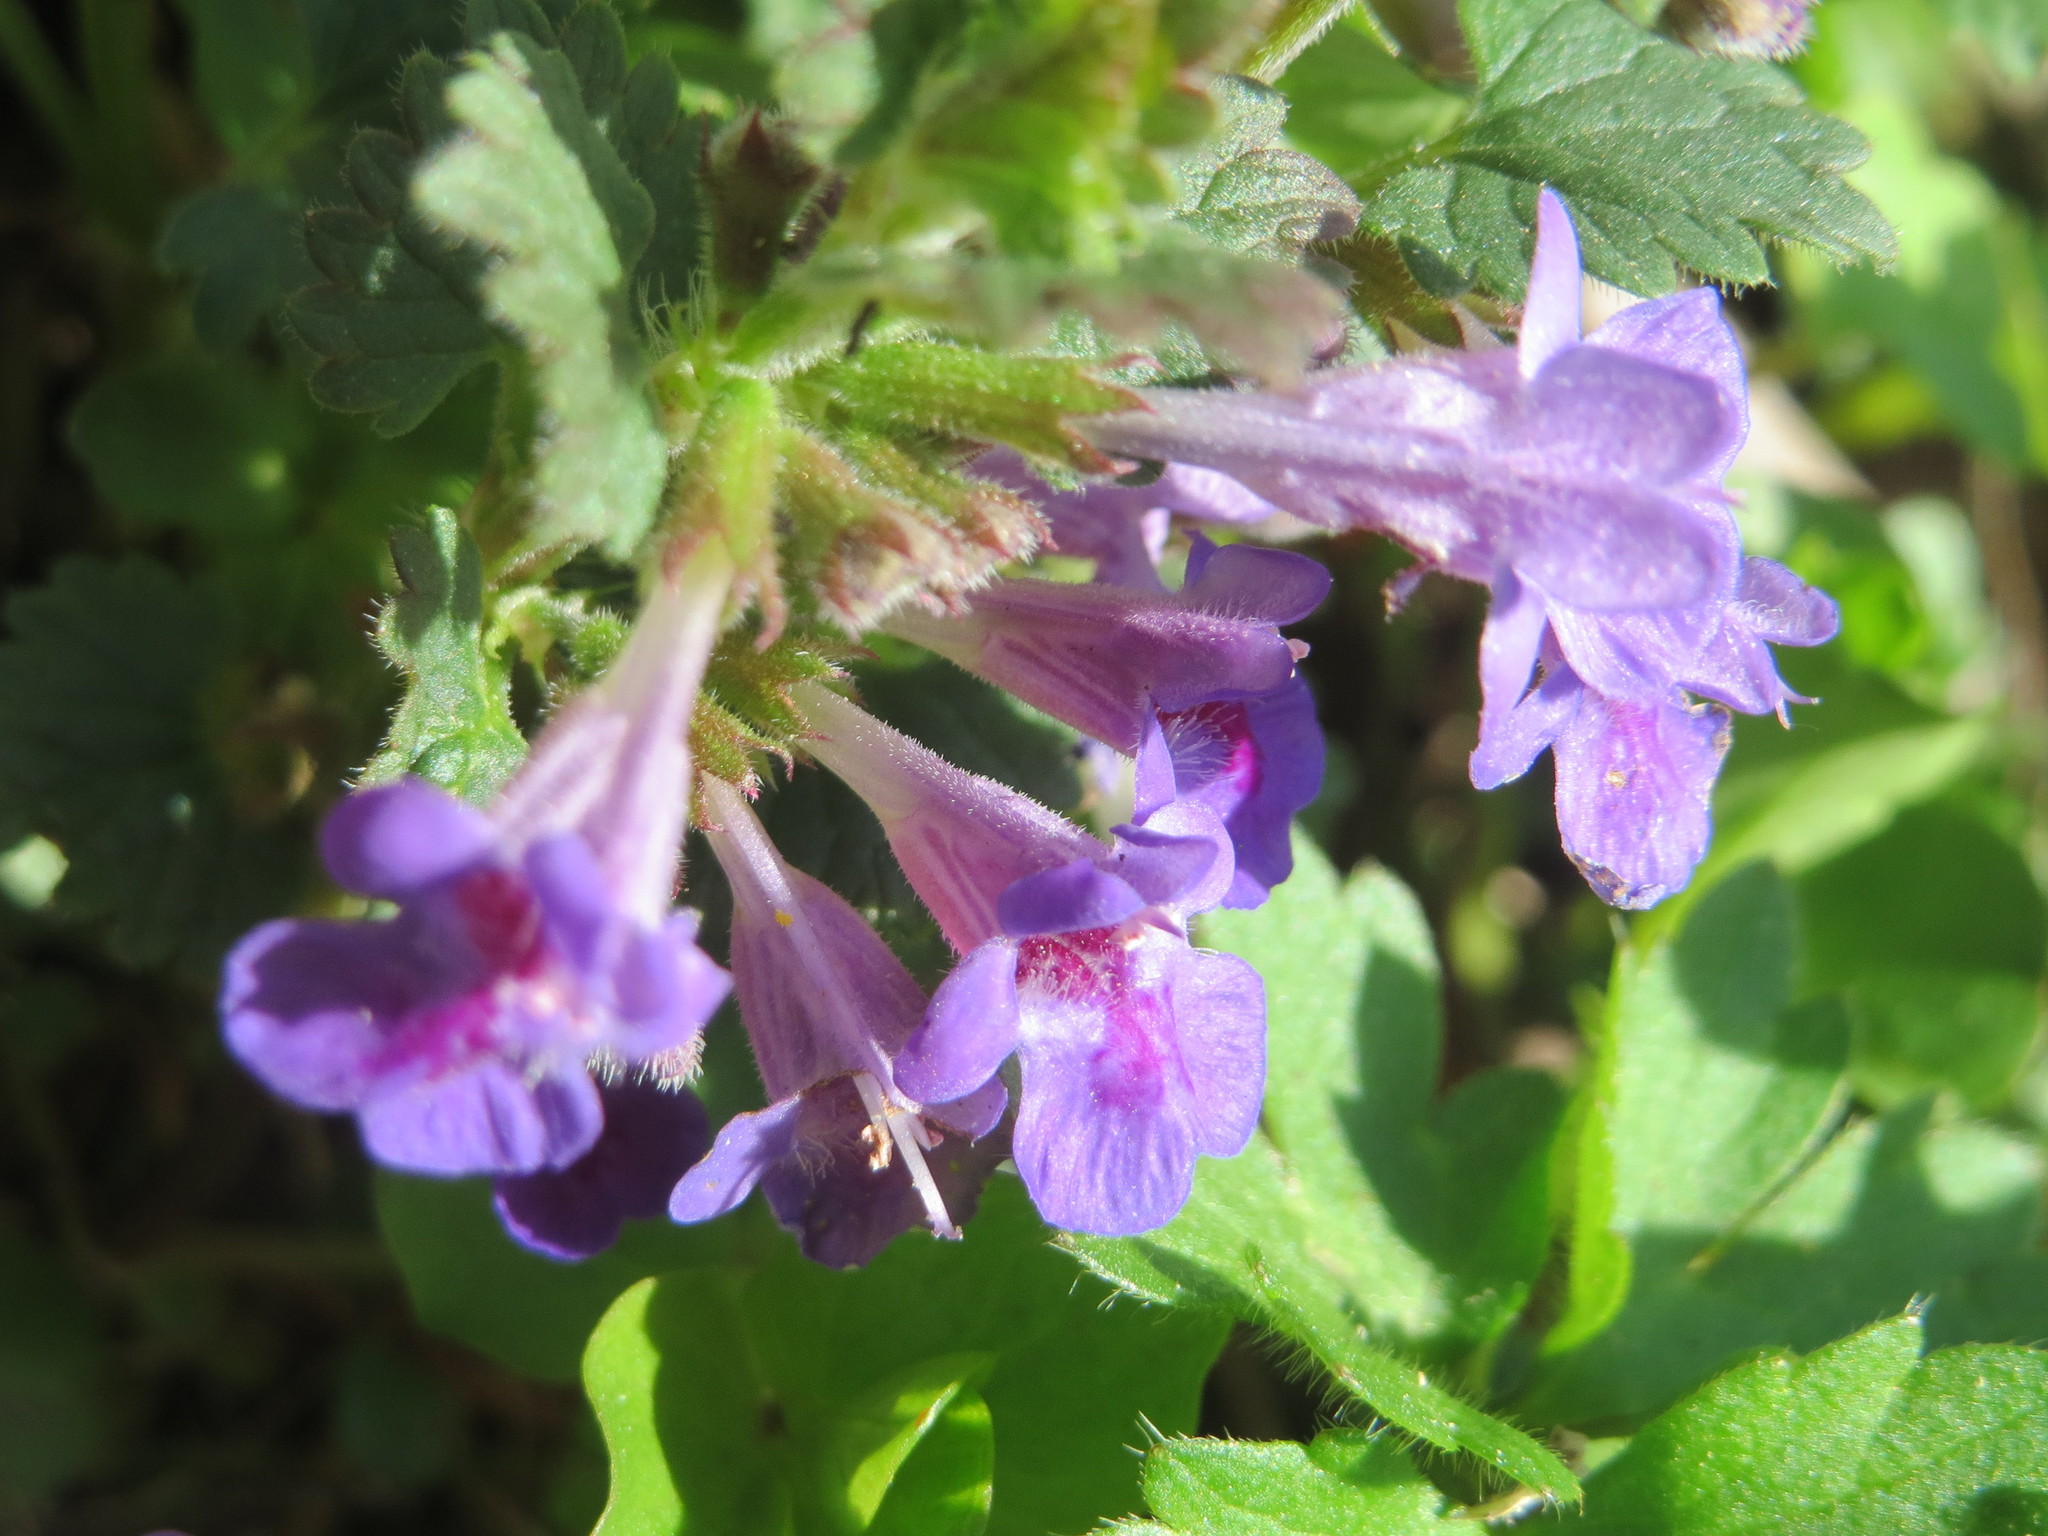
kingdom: Plantae
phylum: Tracheophyta
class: Magnoliopsida
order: Lamiales
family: Lamiaceae
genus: Glechoma
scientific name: Glechoma hederacea
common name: Ground ivy
